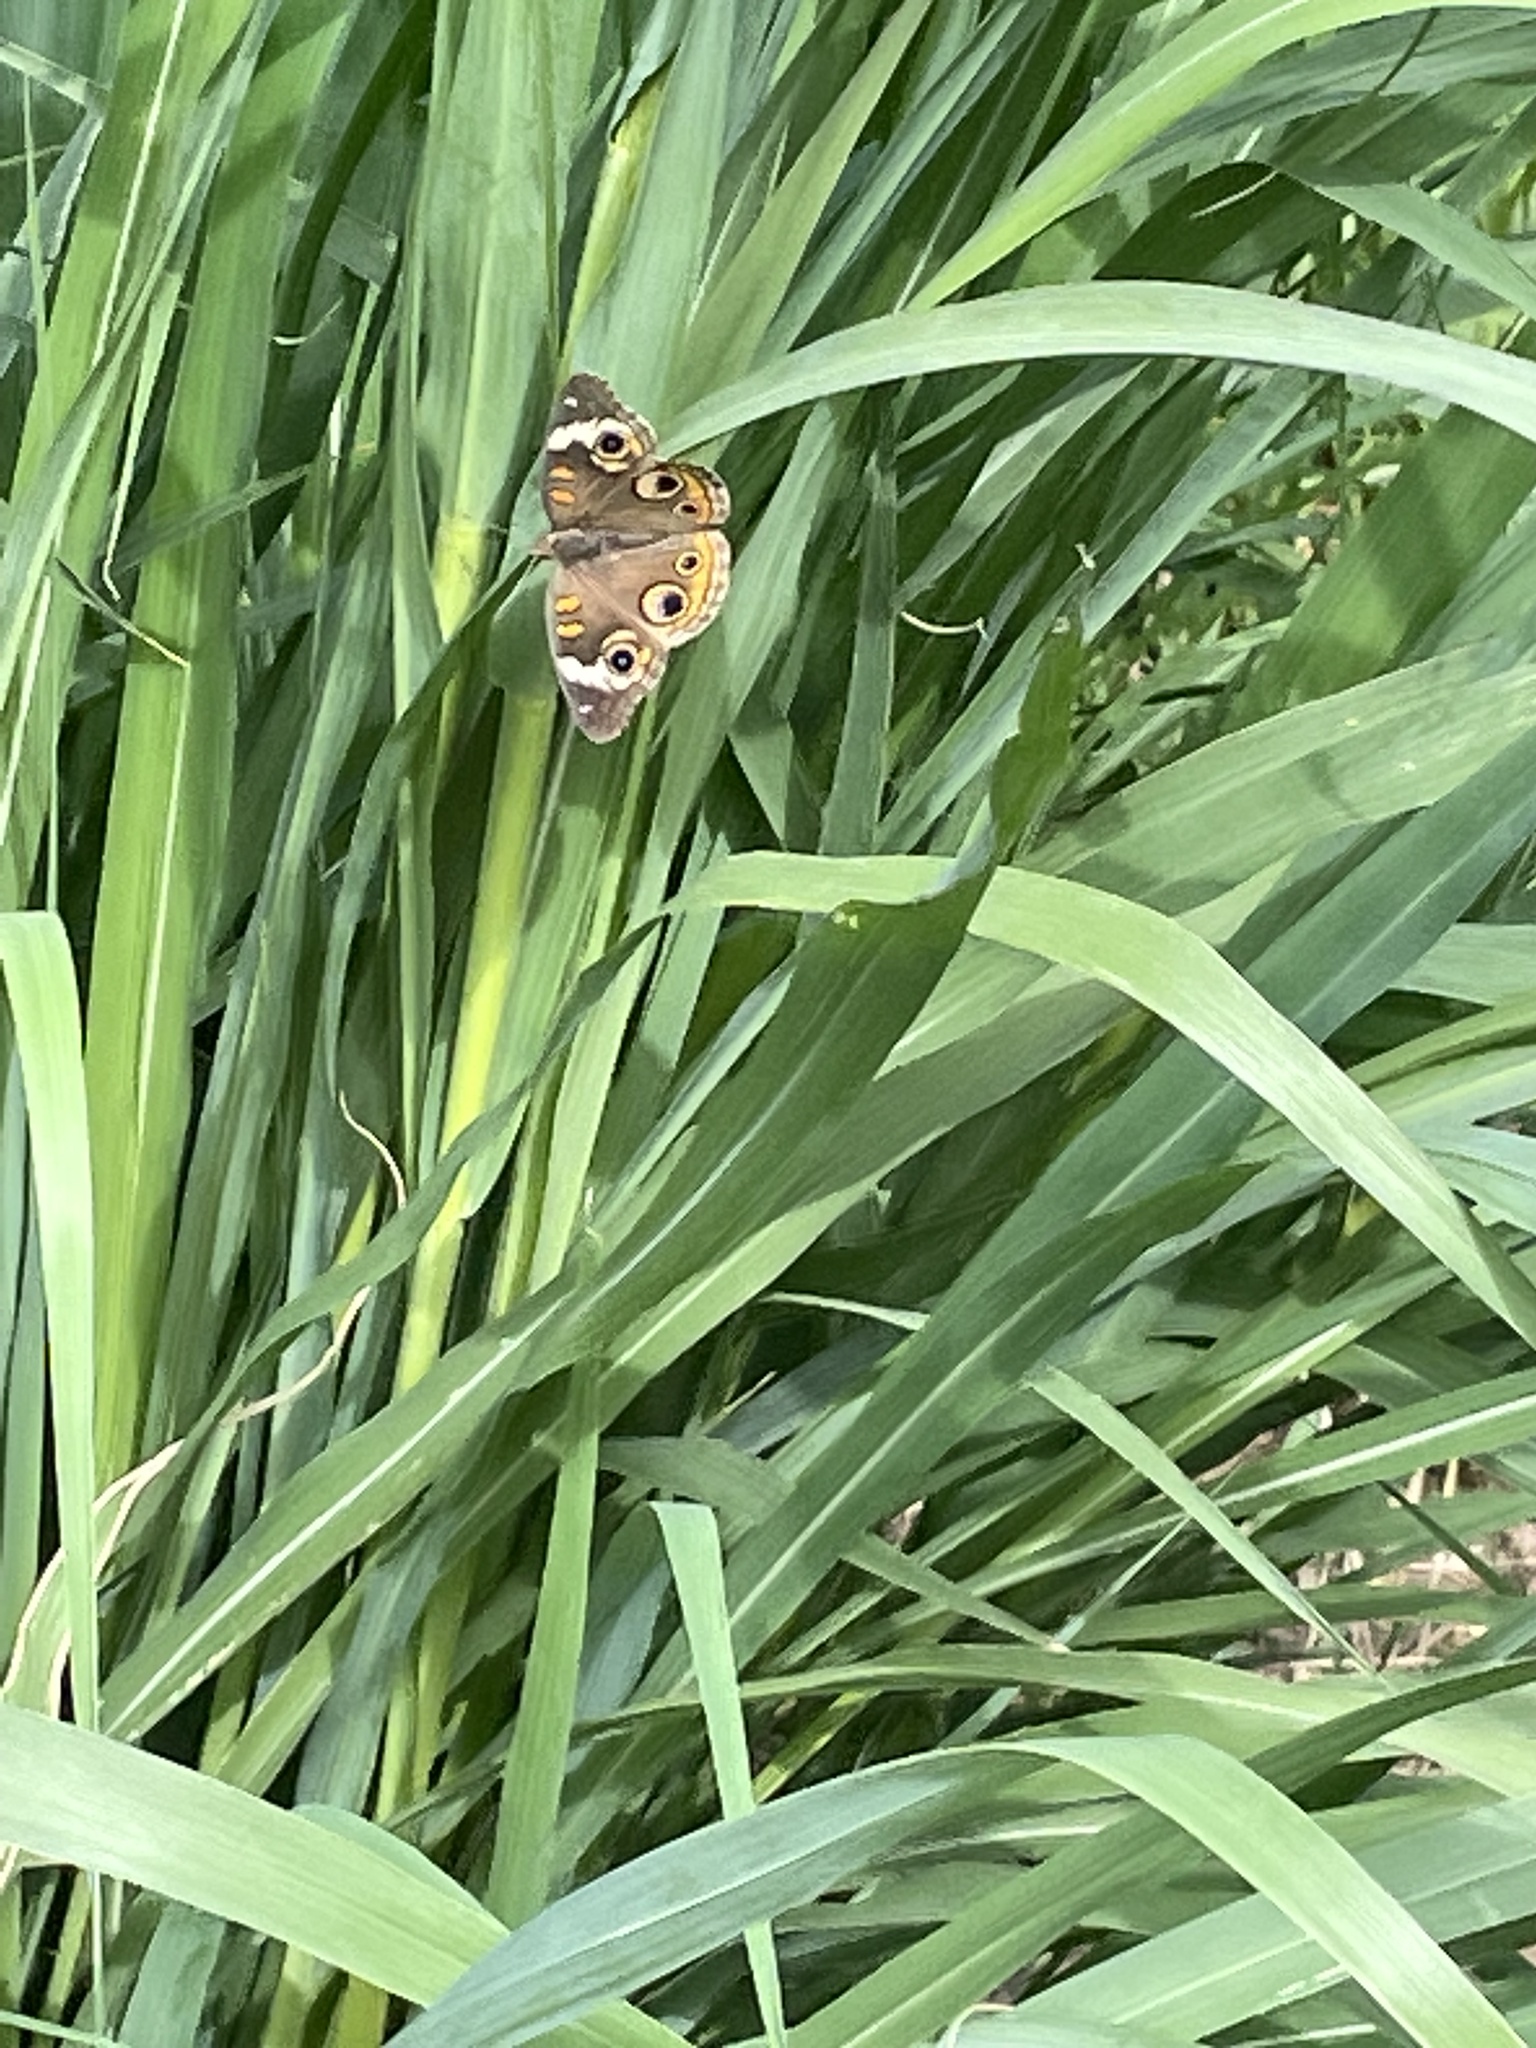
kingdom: Animalia
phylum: Arthropoda
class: Insecta
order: Lepidoptera
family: Nymphalidae
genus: Junonia
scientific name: Junonia coenia
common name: Common buckeye
